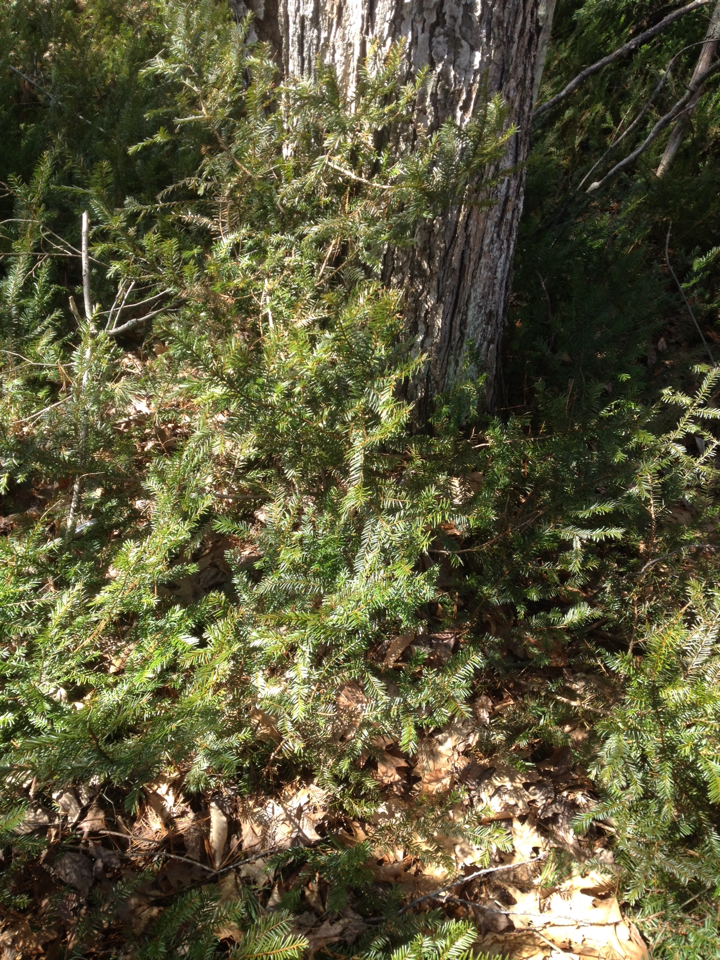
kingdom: Plantae
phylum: Tracheophyta
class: Pinopsida
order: Pinales
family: Taxaceae
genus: Taxus
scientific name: Taxus canadensis
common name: American yew
